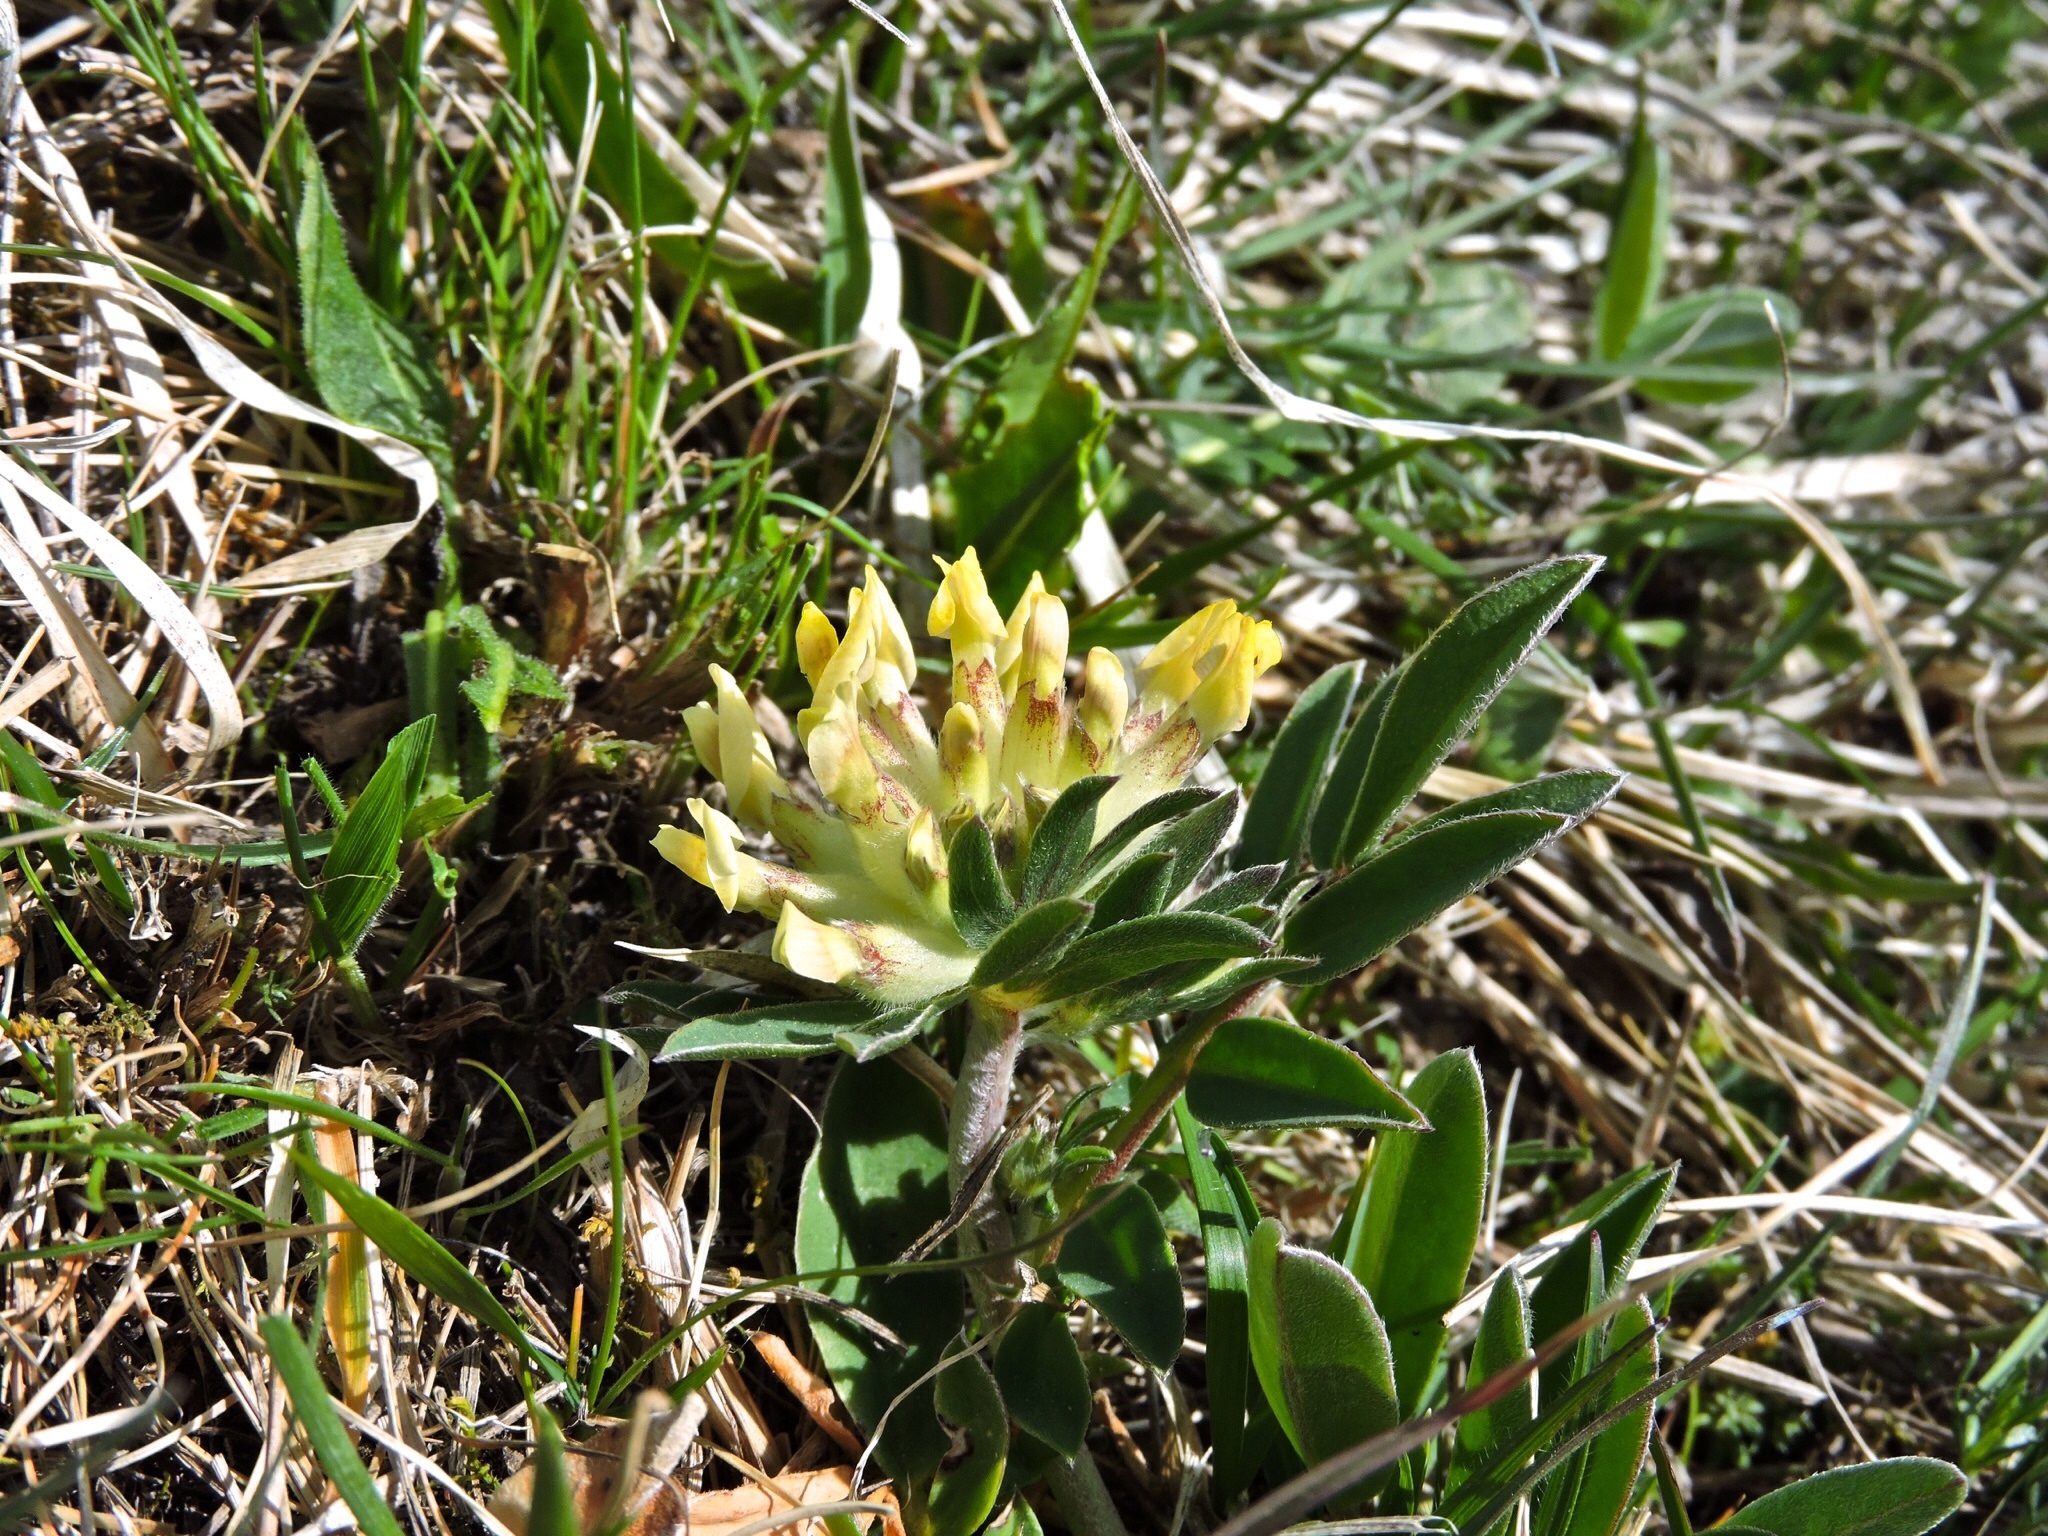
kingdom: Plantae
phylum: Tracheophyta
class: Magnoliopsida
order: Fabales
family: Fabaceae
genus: Anthyllis
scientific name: Anthyllis vulneraria
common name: Kidney vetch
